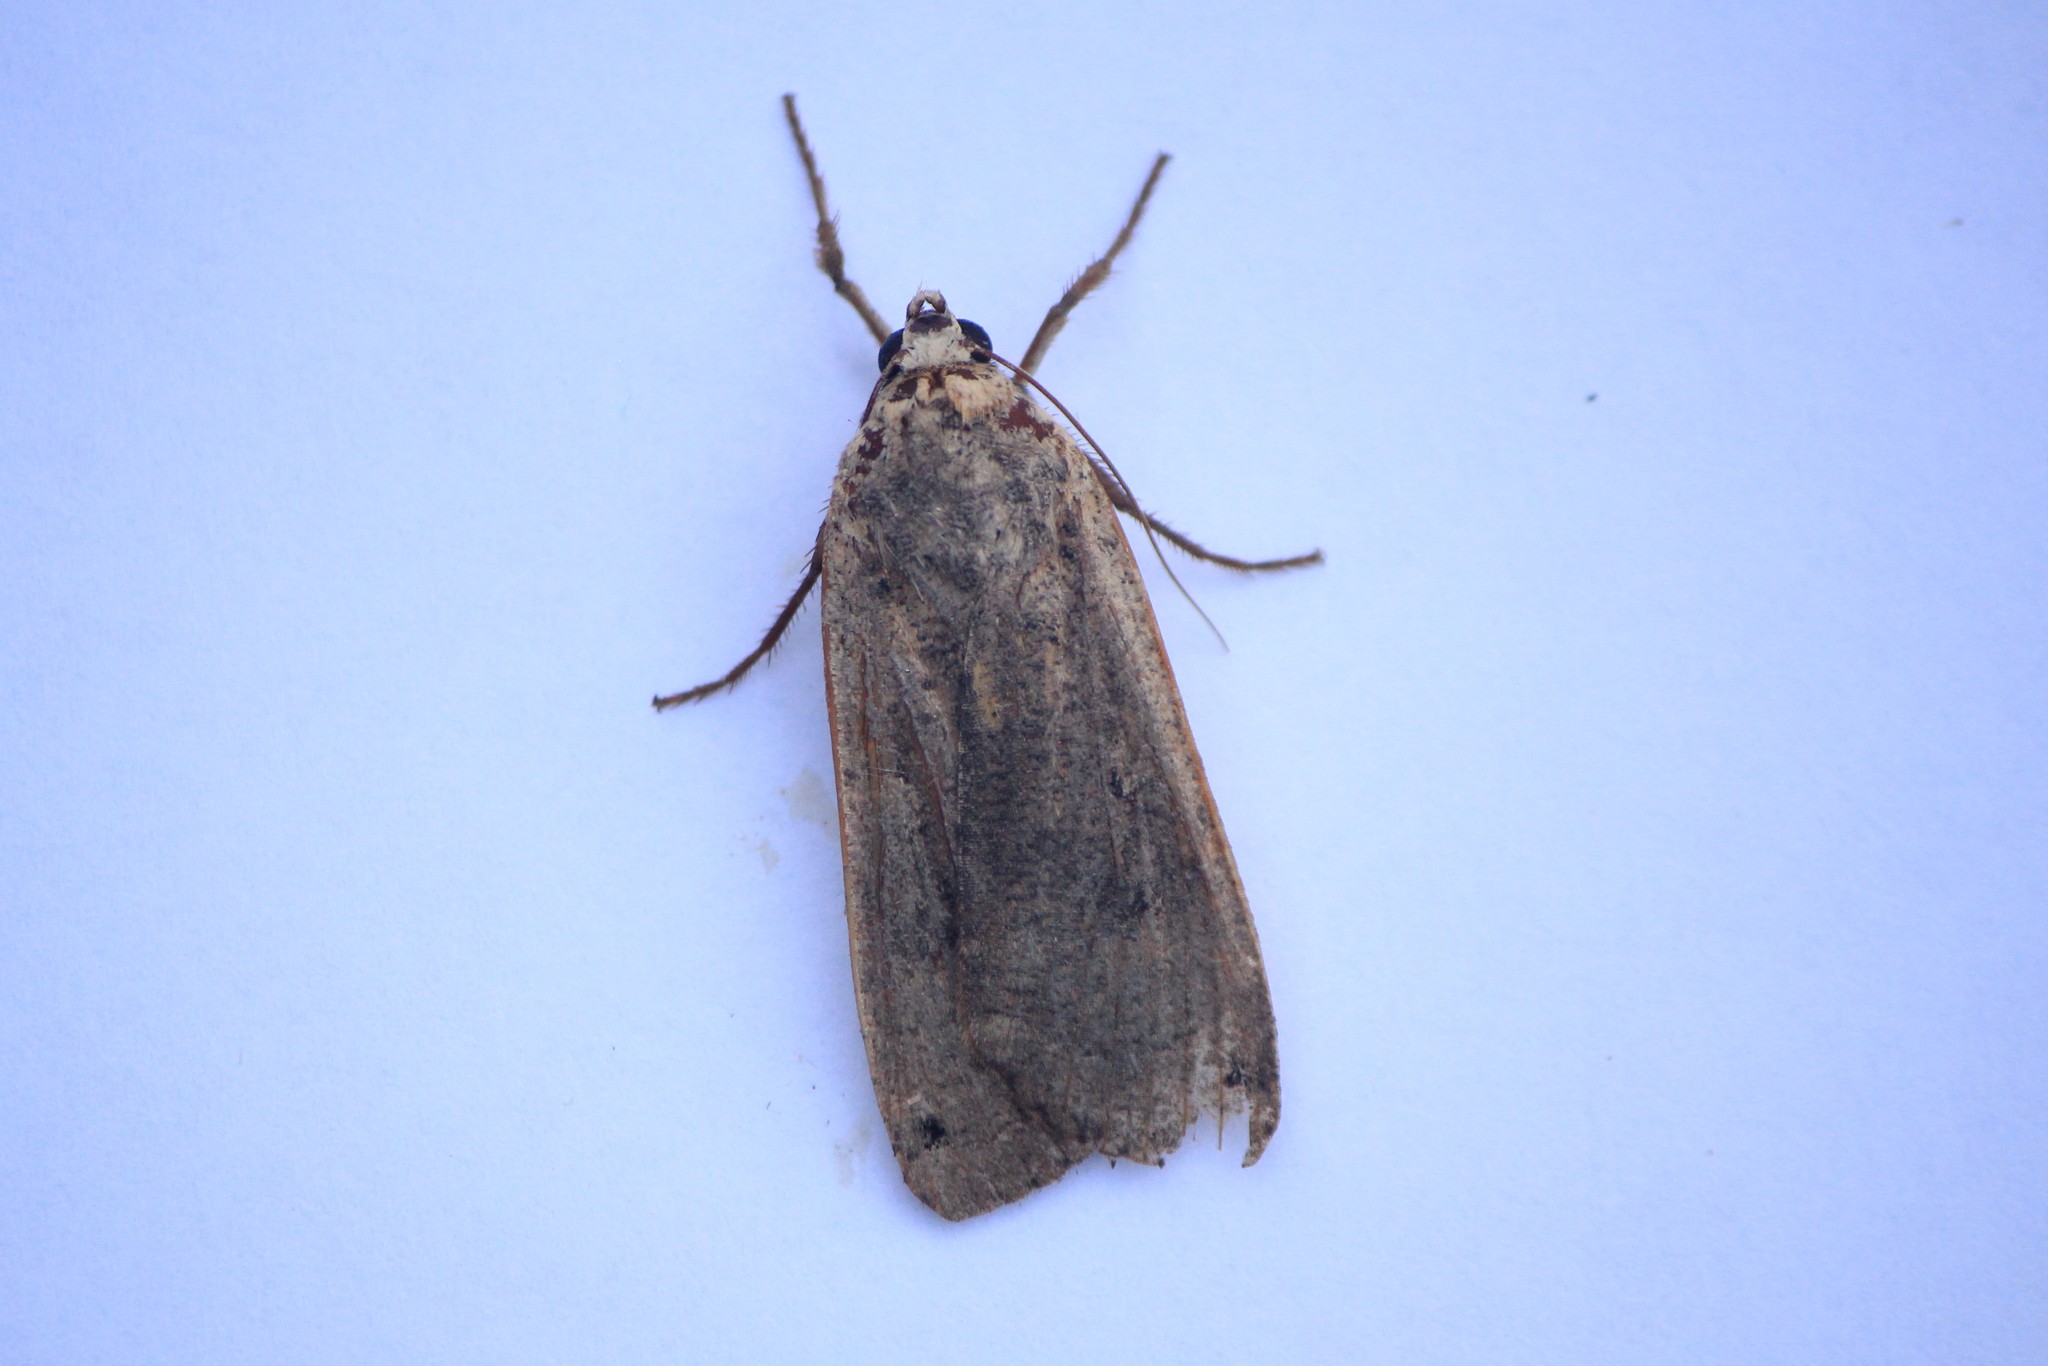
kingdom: Animalia
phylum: Arthropoda
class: Insecta
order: Lepidoptera
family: Noctuidae
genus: Noctua
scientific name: Noctua pronuba
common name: Large yellow underwing
